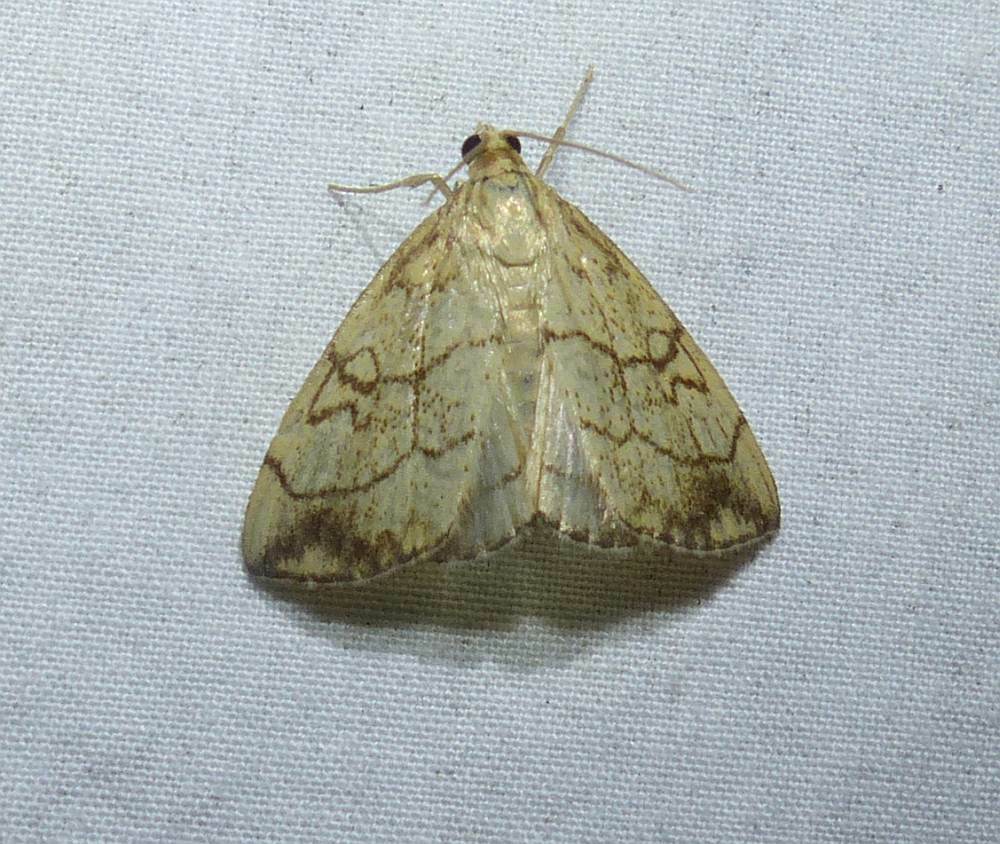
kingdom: Animalia
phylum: Arthropoda
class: Insecta
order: Lepidoptera
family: Crambidae
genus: Evergestis
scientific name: Evergestis pallidata
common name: Chequered pearl
